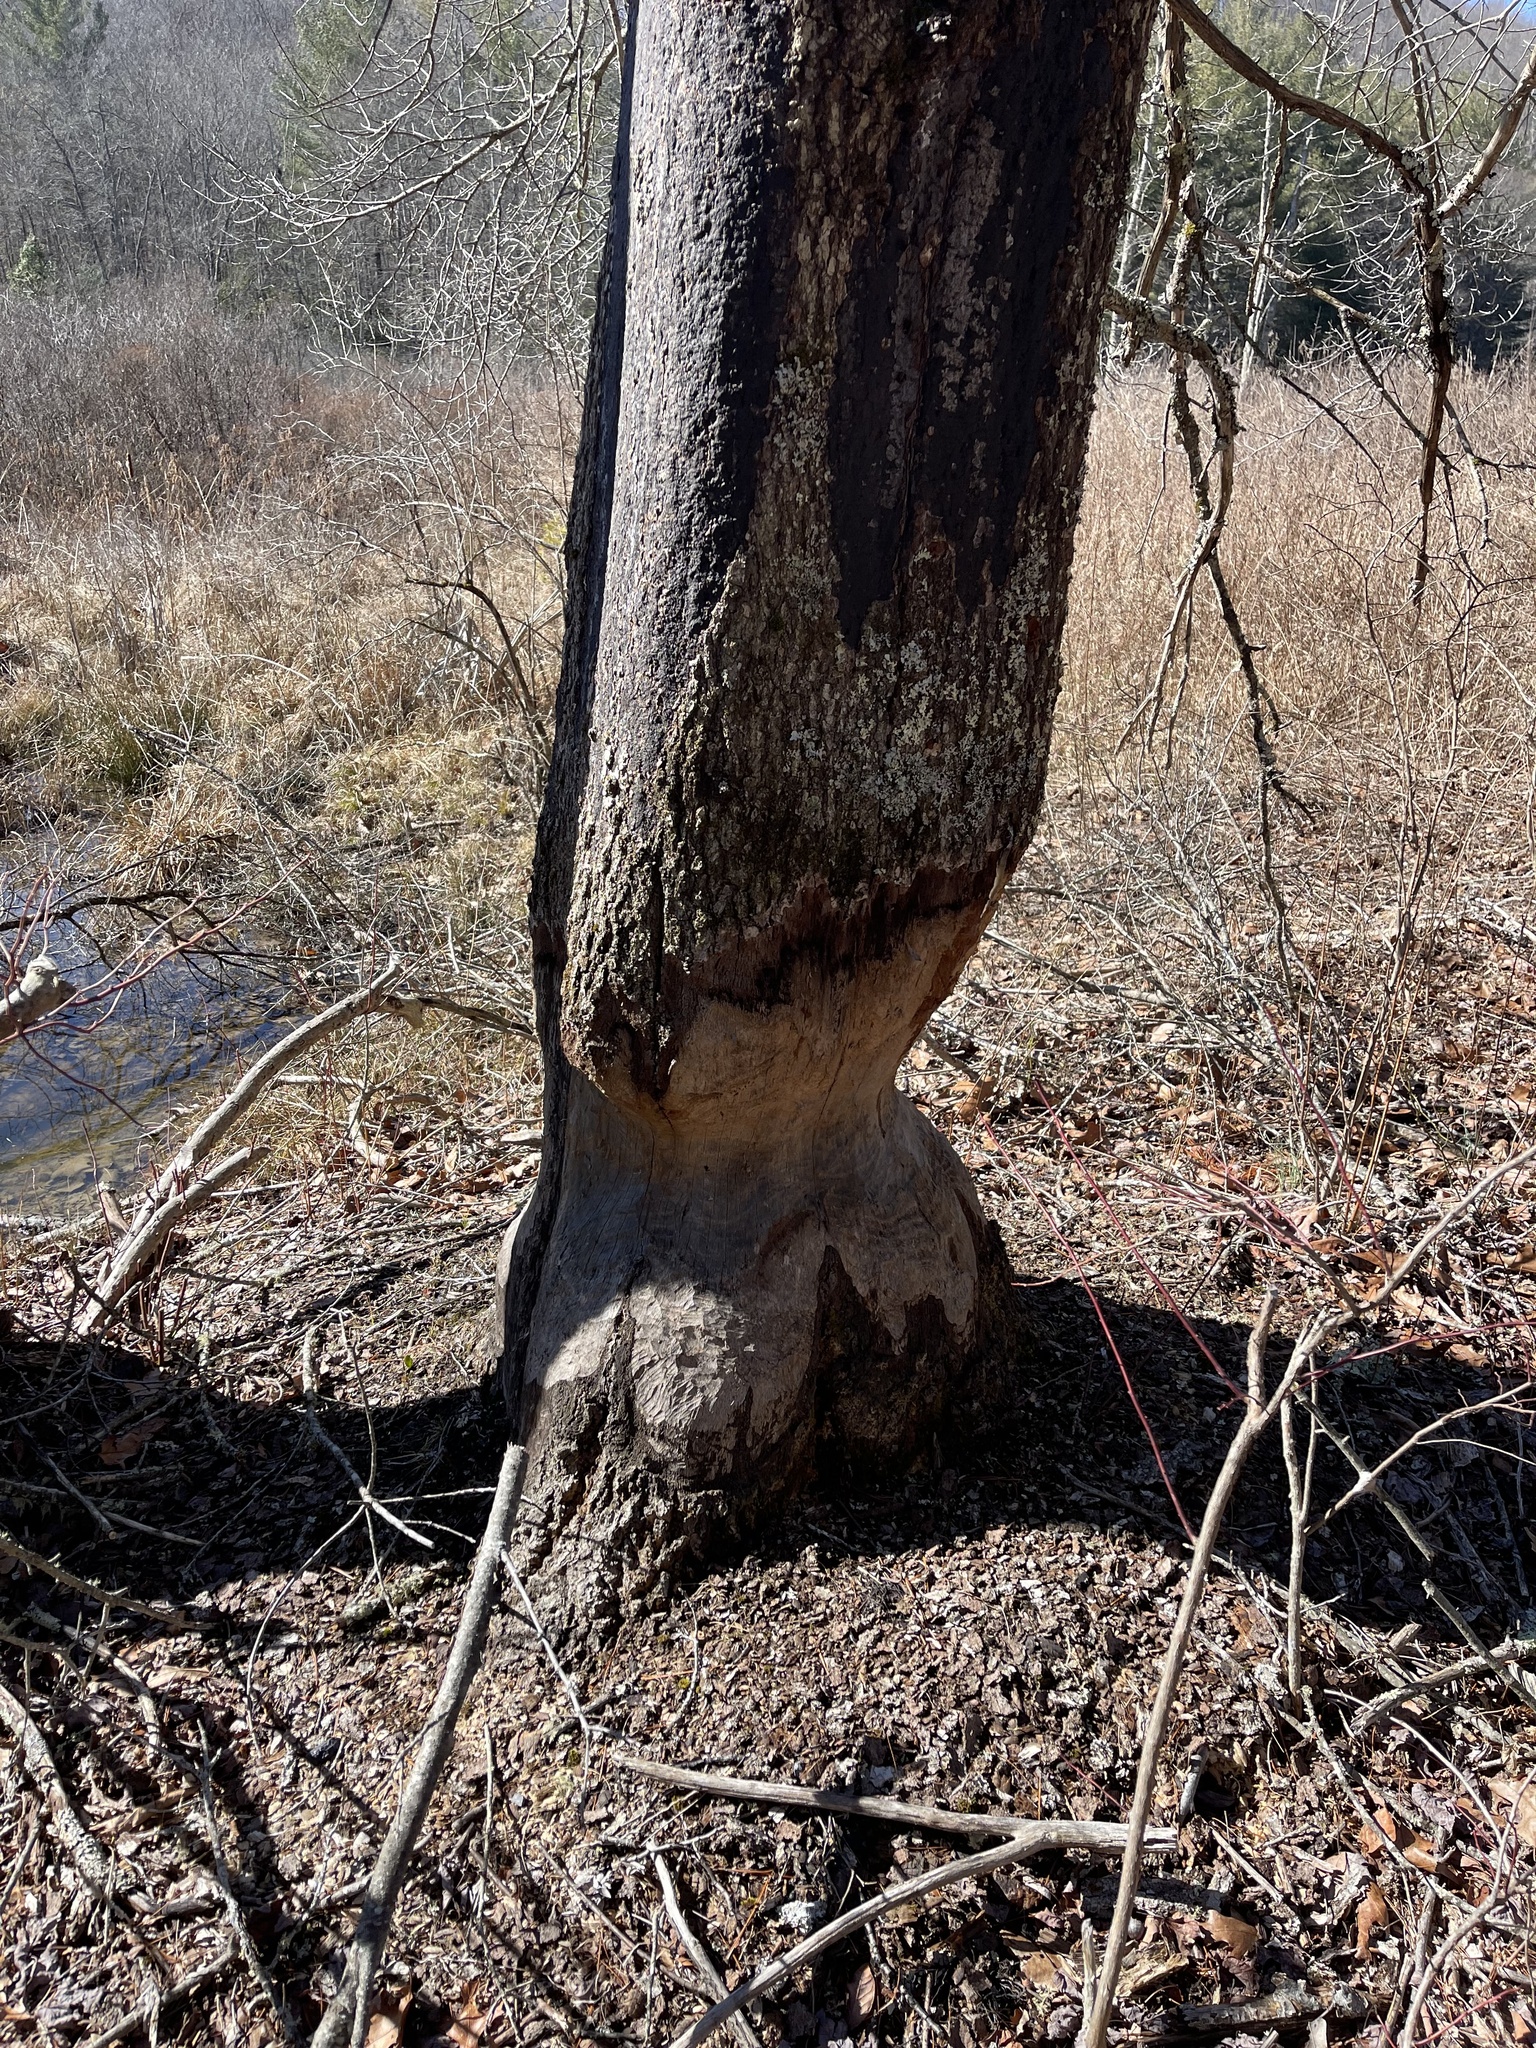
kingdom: Animalia
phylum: Chordata
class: Mammalia
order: Rodentia
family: Castoridae
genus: Castor
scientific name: Castor canadensis
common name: American beaver
